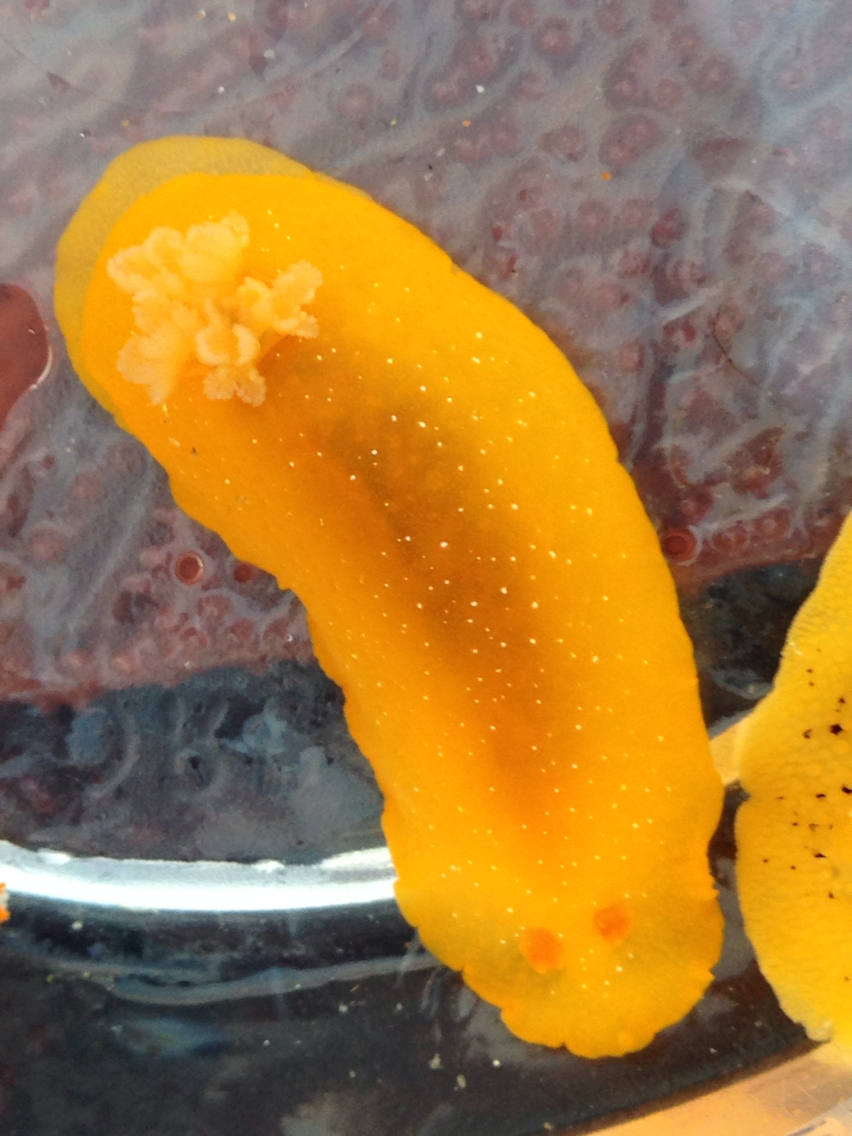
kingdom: Animalia
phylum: Mollusca
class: Gastropoda
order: Nudibranchia
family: Dendrodorididae
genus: Doriopsilla
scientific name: Doriopsilla fulva
